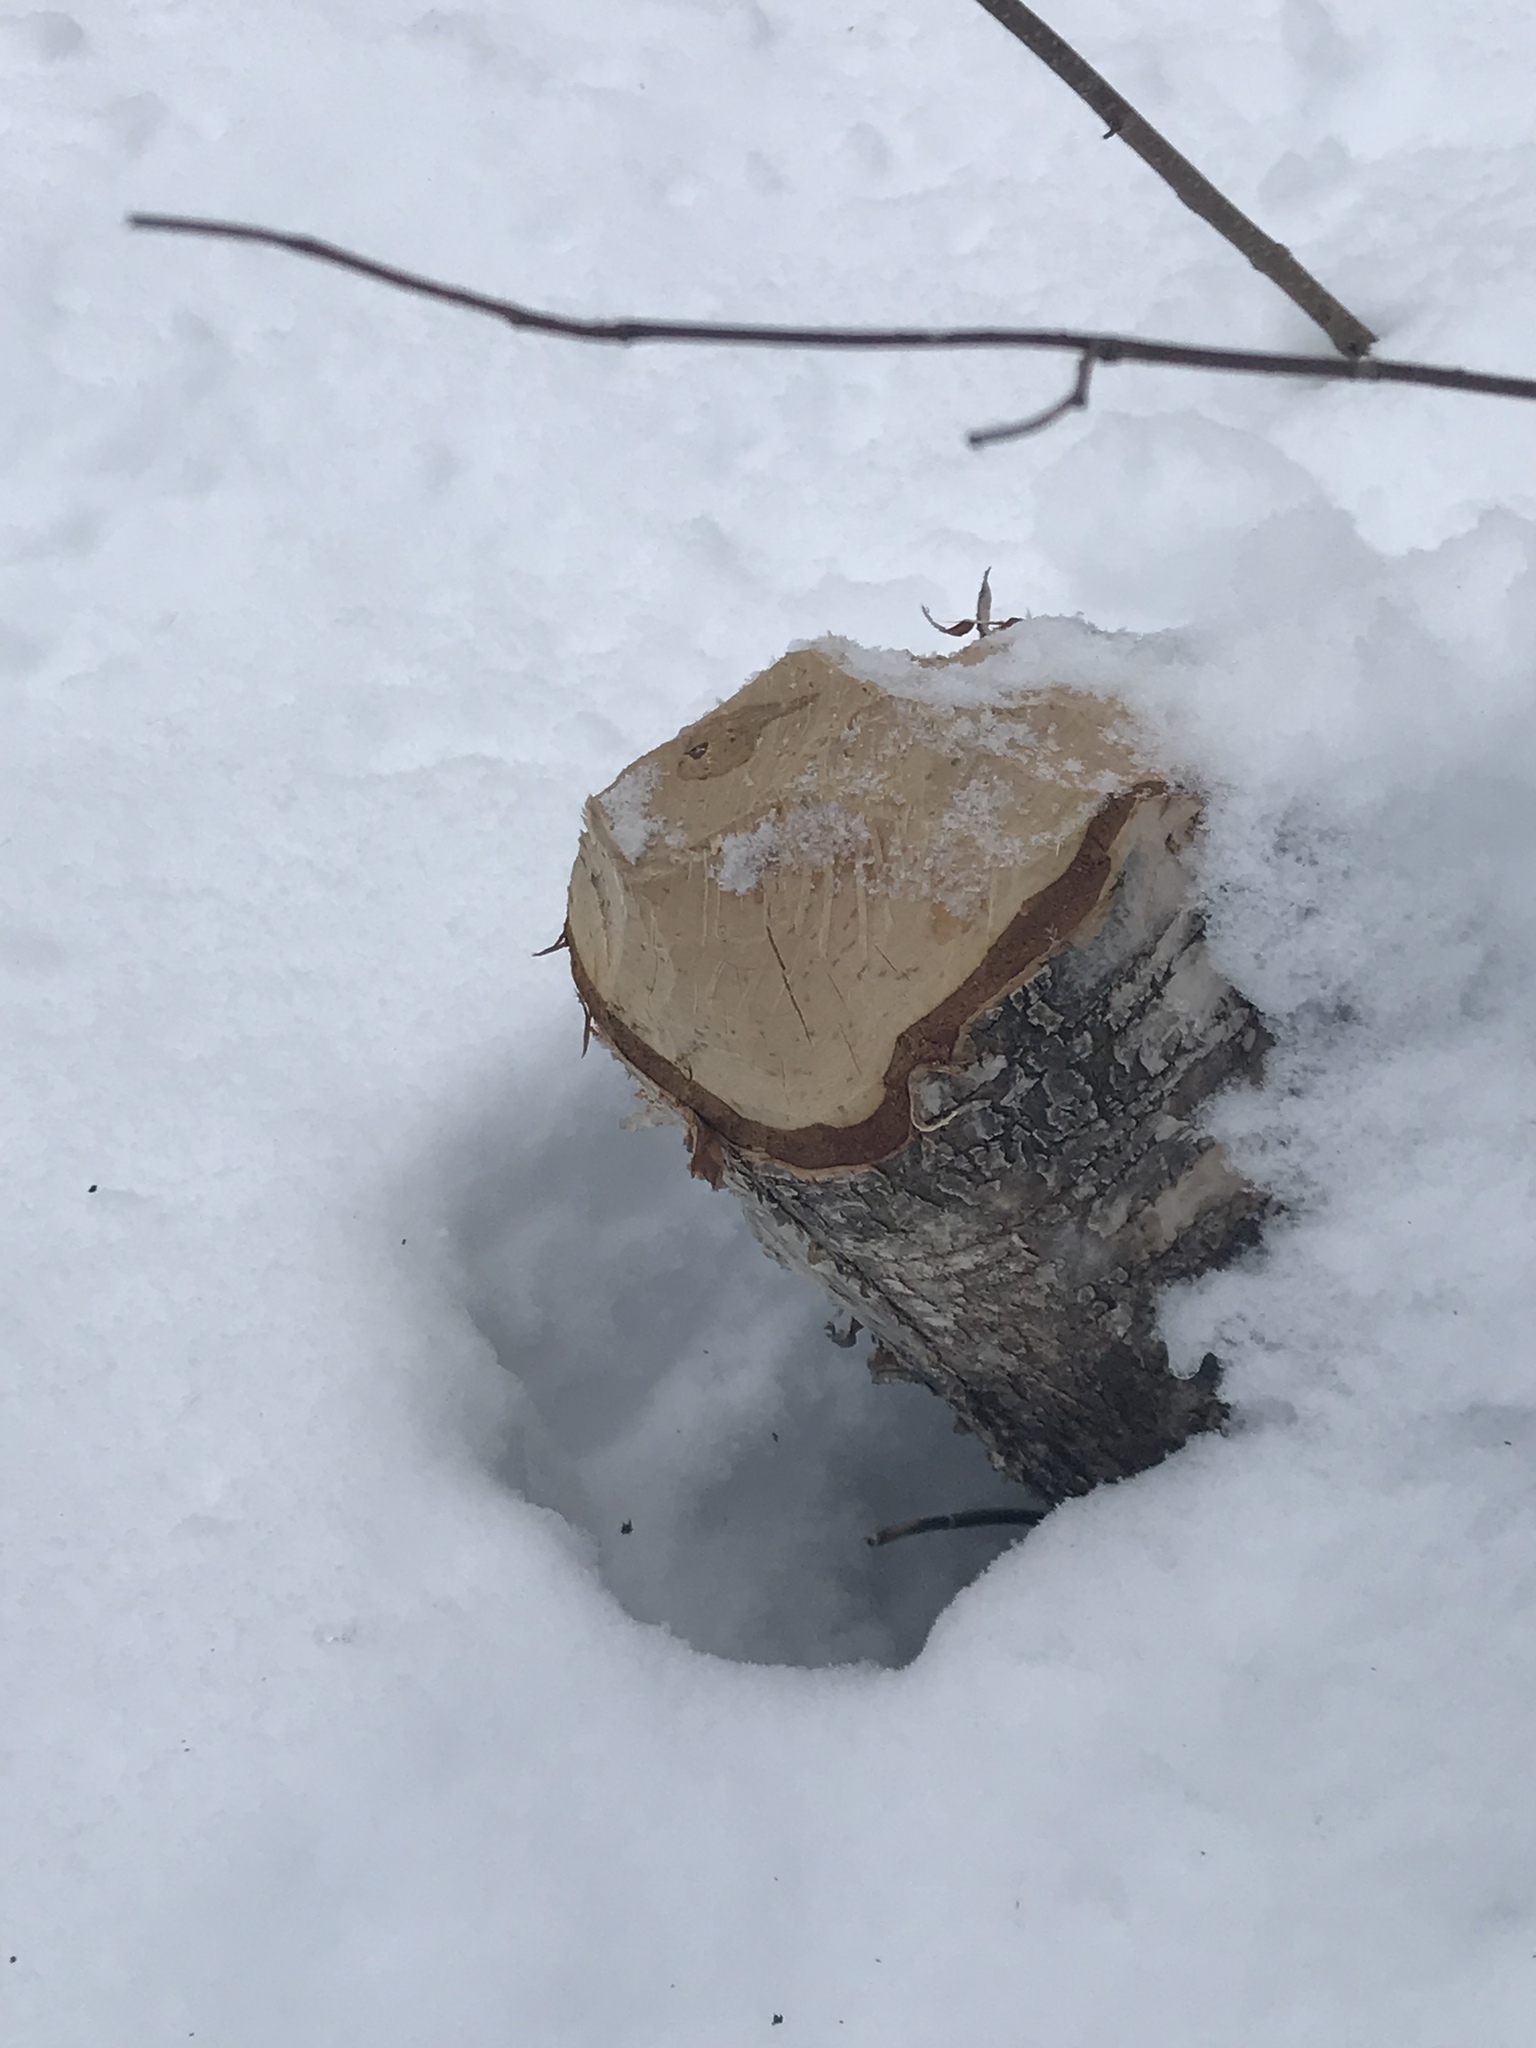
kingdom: Animalia
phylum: Chordata
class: Mammalia
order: Rodentia
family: Castoridae
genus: Castor
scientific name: Castor canadensis
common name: American beaver
